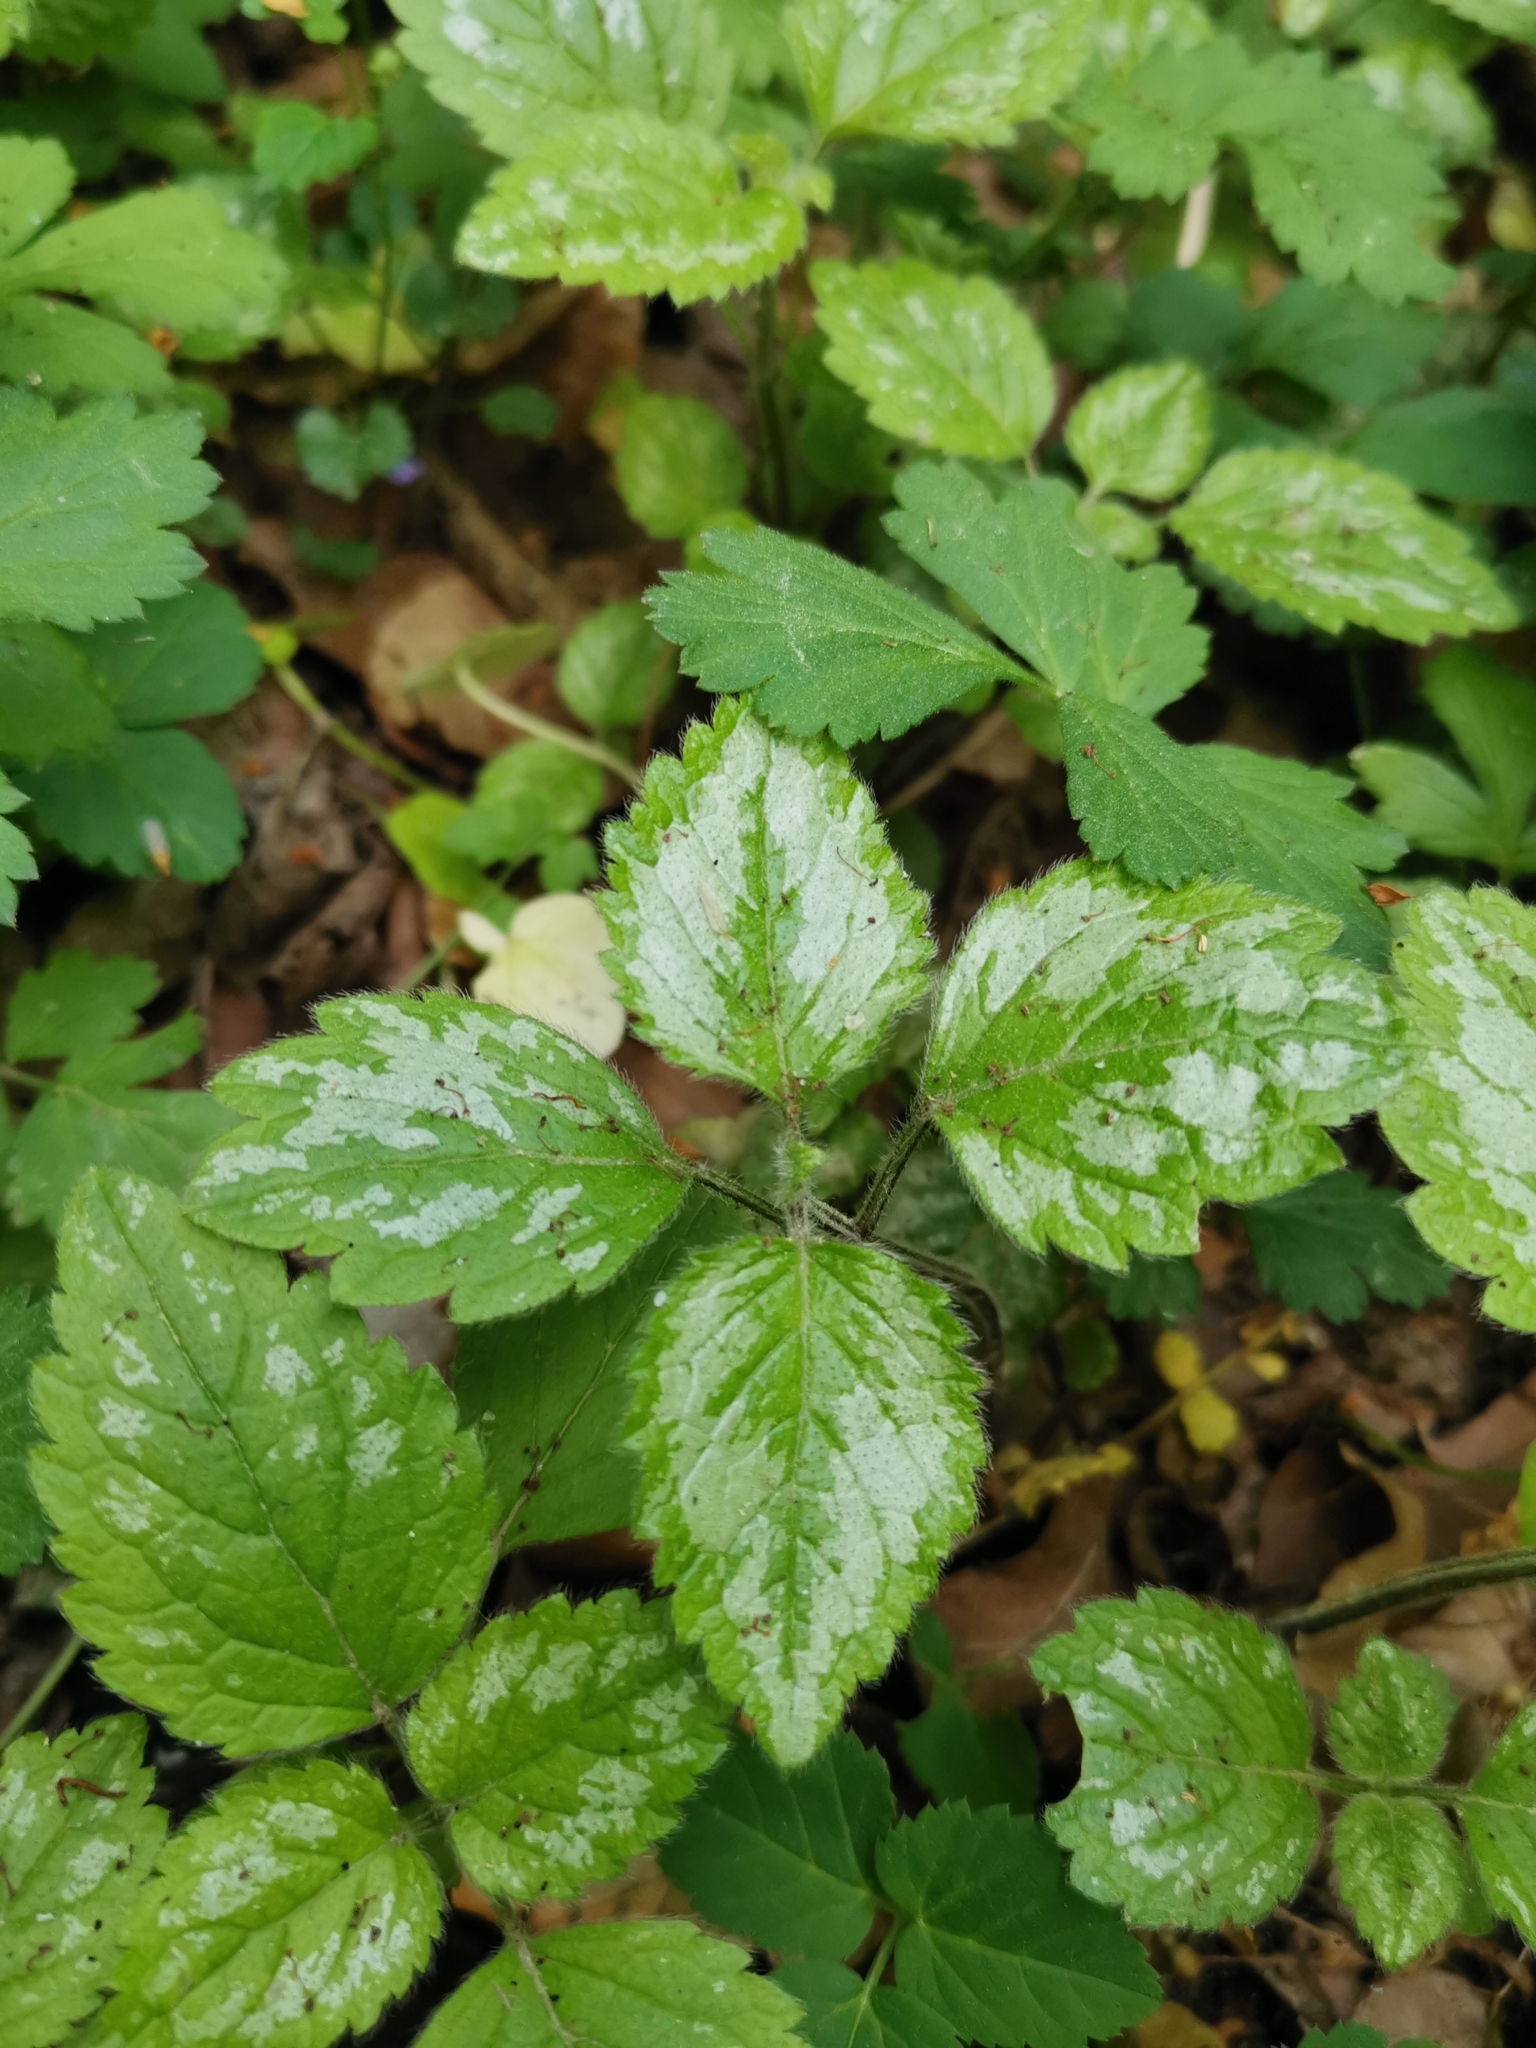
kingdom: Plantae
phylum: Tracheophyta
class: Magnoliopsida
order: Lamiales
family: Lamiaceae
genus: Lamium
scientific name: Lamium galeobdolon
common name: Yellow archangel
